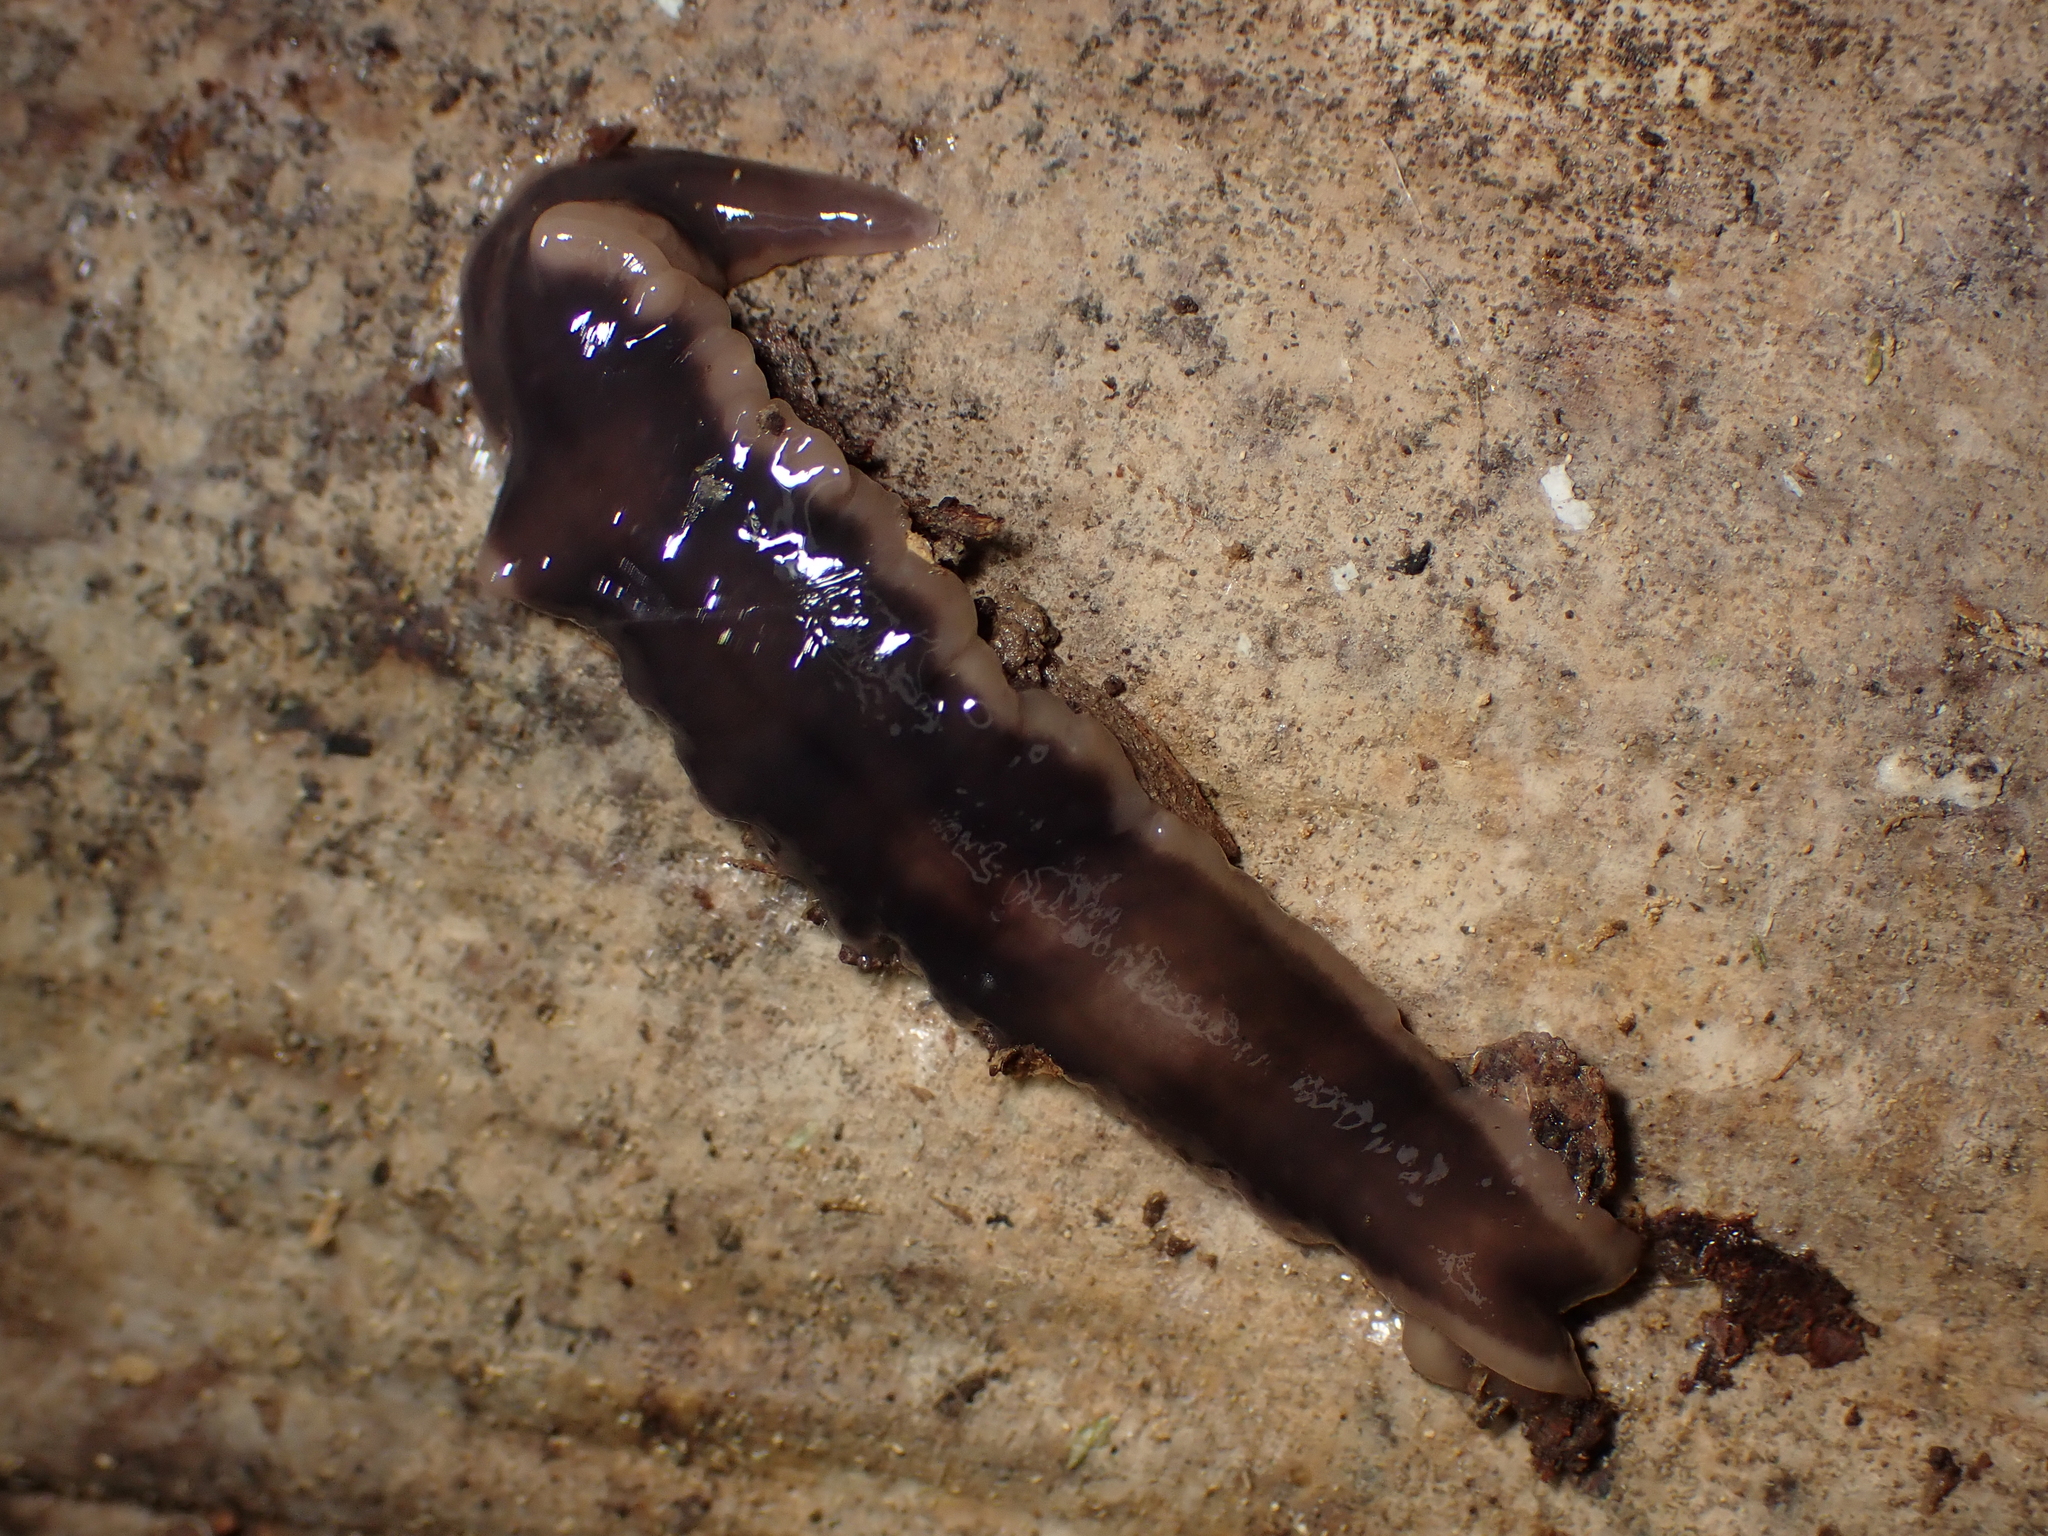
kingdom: Animalia
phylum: Platyhelminthes
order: Tricladida
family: Geoplanidae
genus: Arthurdendyus
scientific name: Arthurdendyus australis
